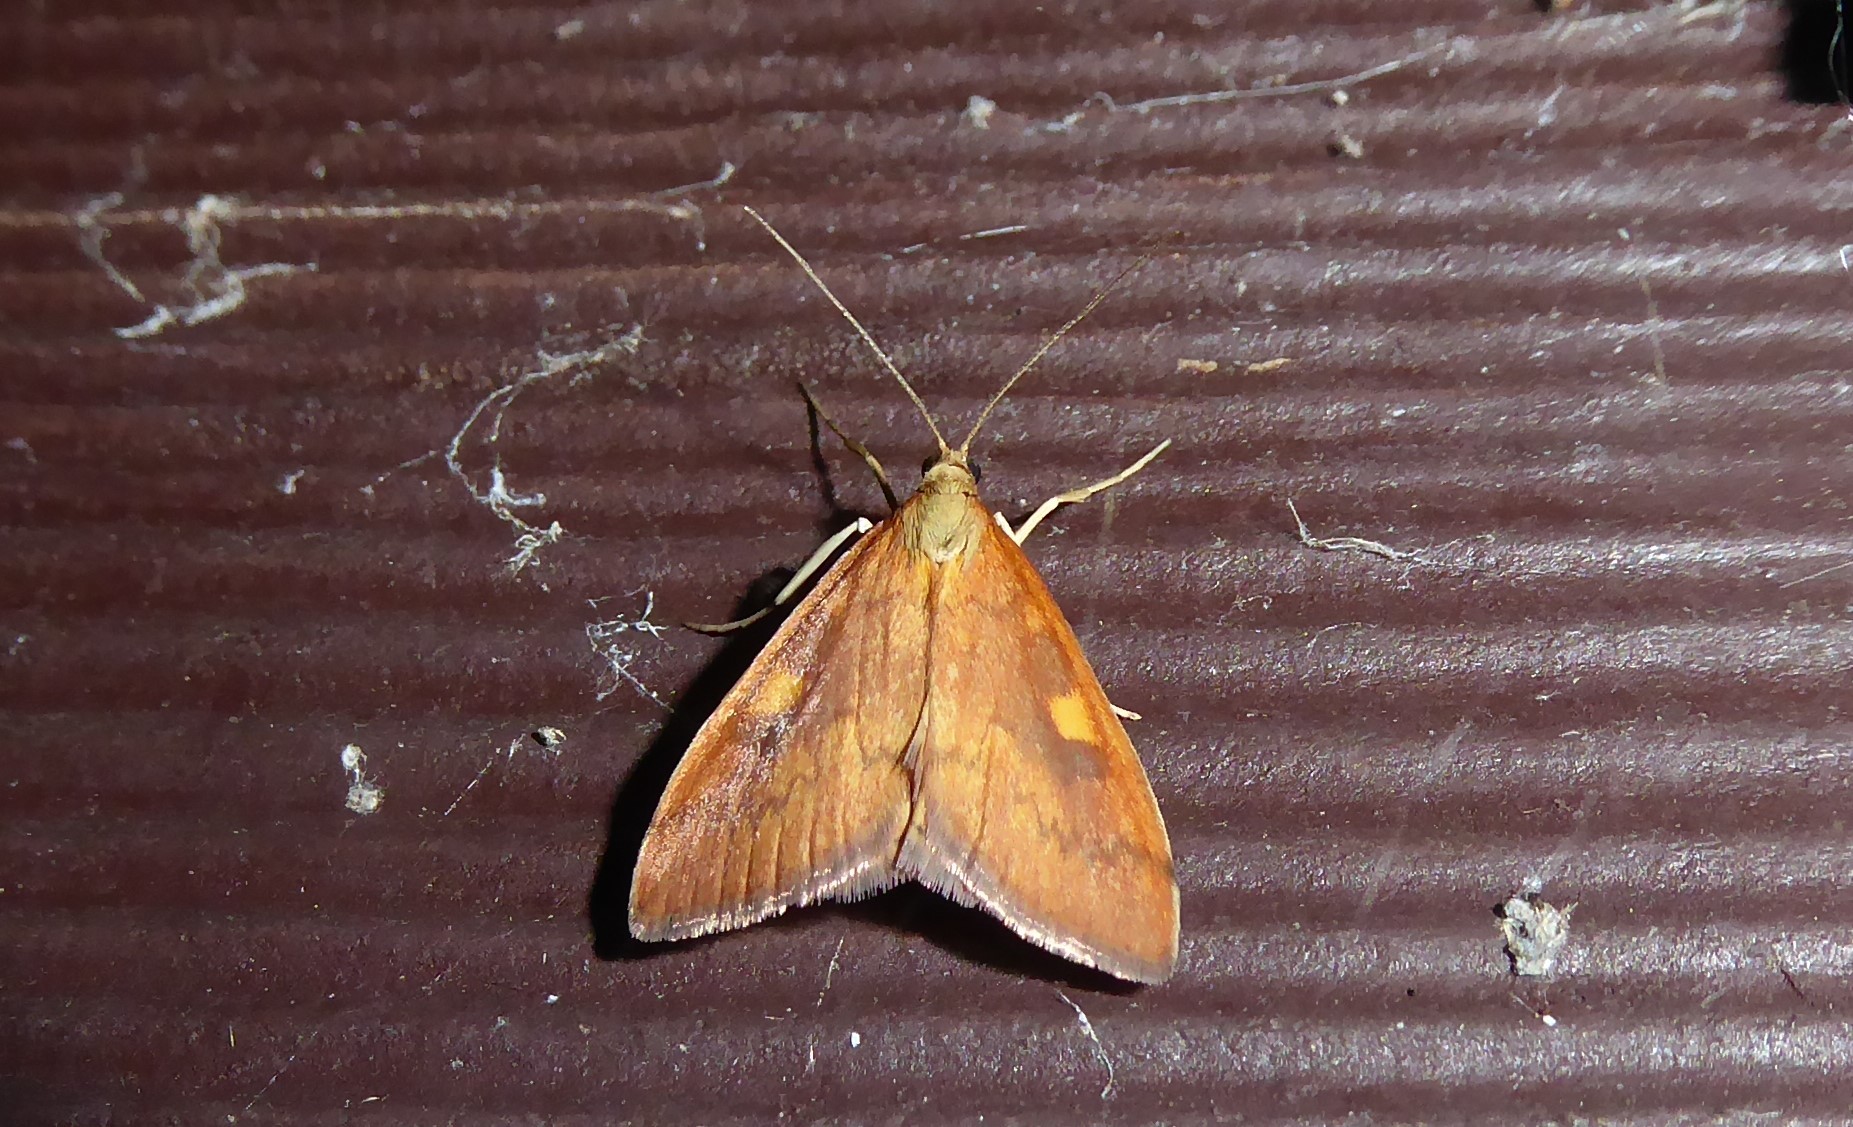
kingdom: Animalia
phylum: Arthropoda
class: Insecta
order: Lepidoptera
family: Crambidae
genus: Udea
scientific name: Udea Mnesictena flavidalis
